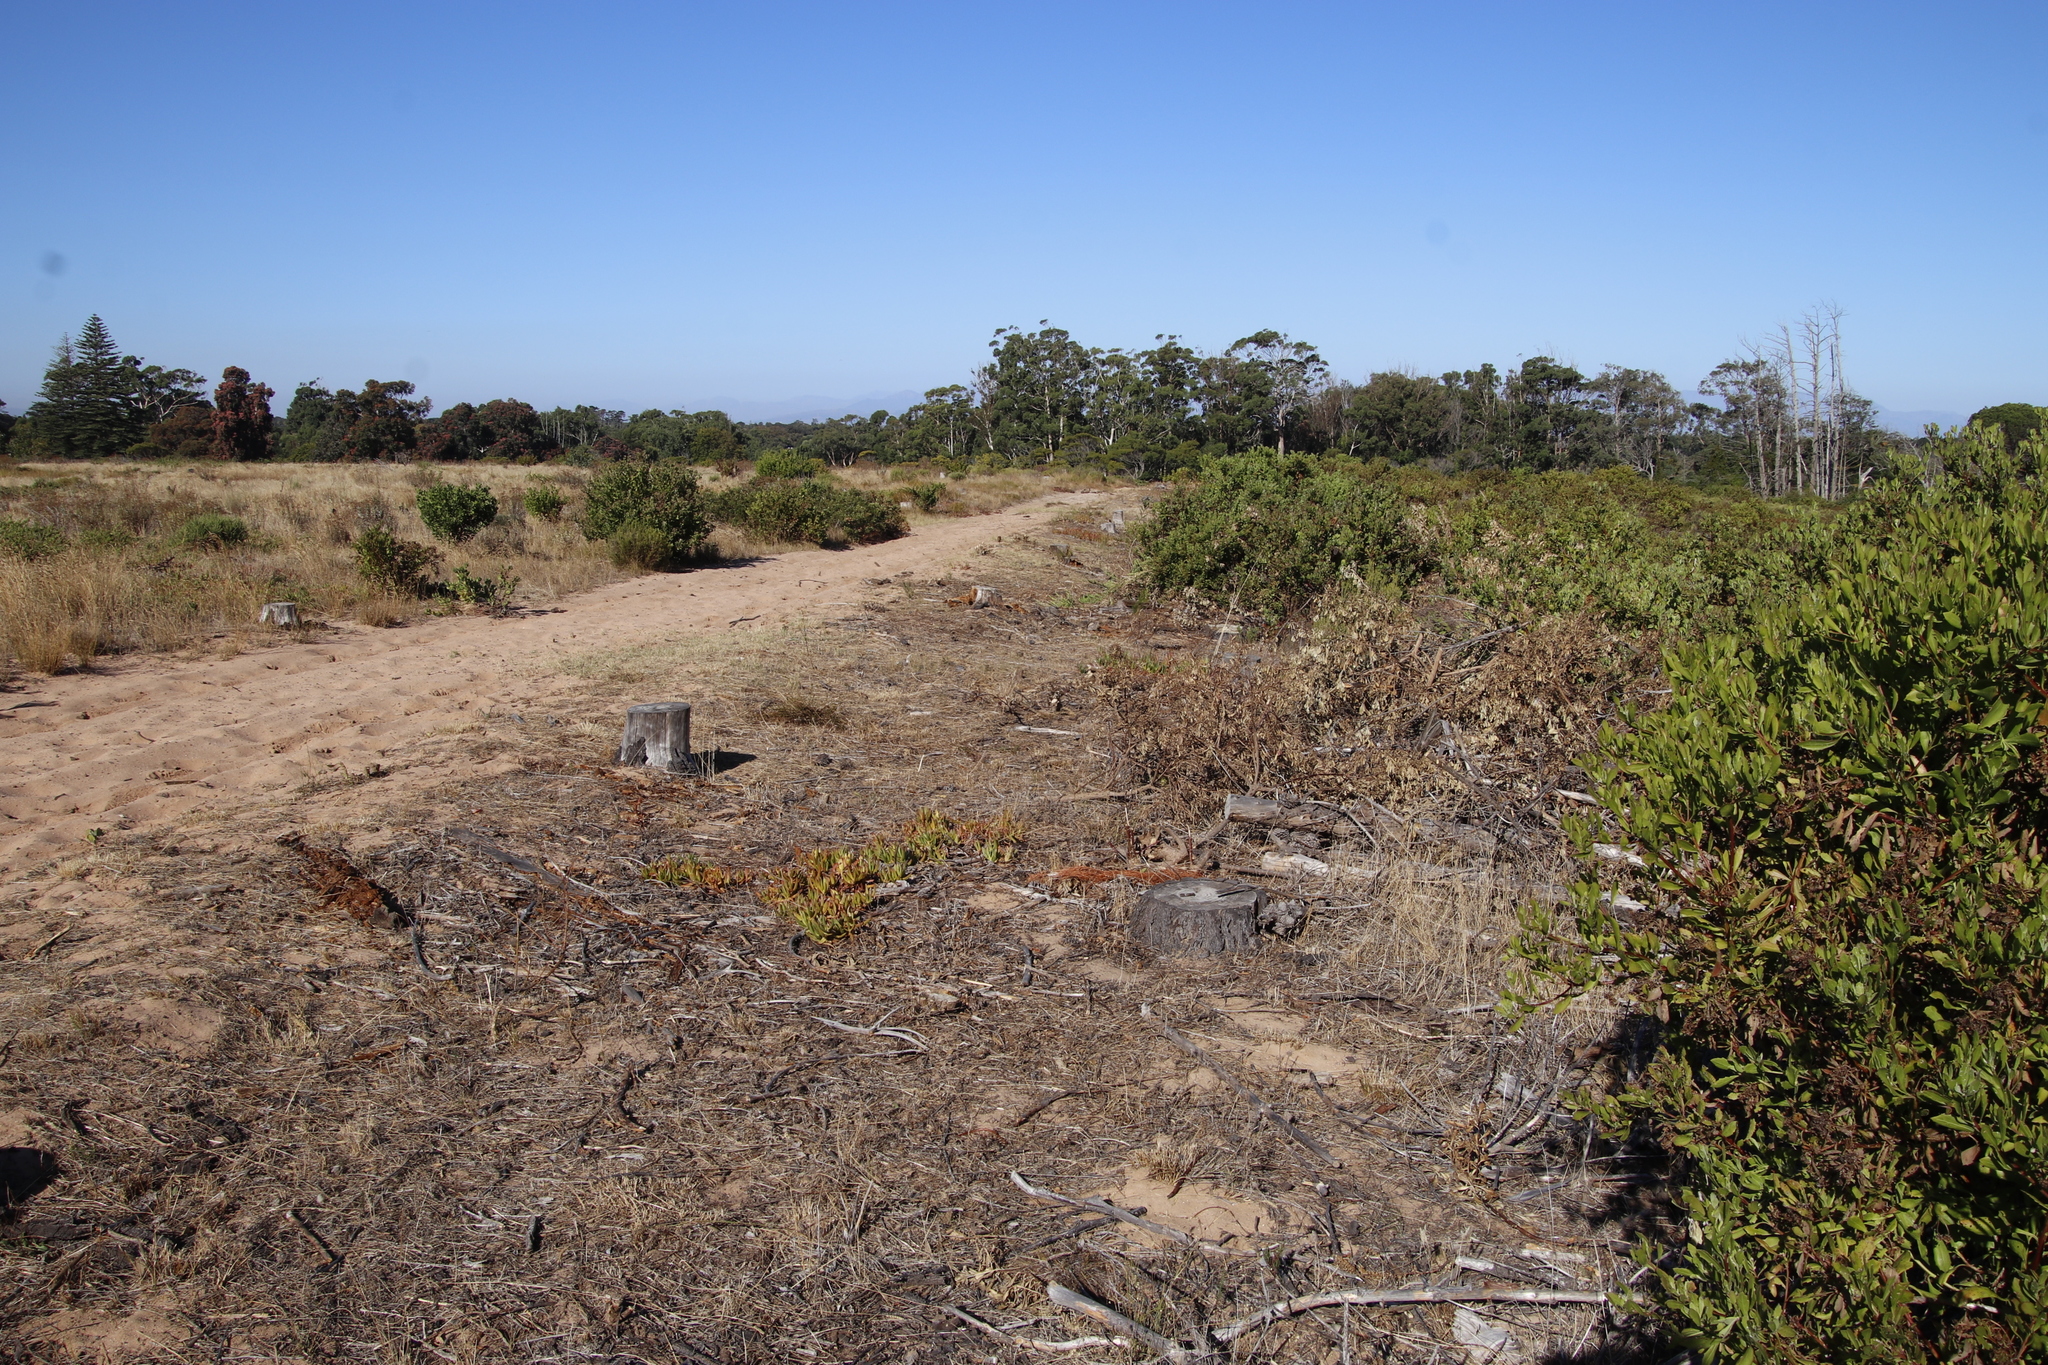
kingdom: Plantae
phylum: Tracheophyta
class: Magnoliopsida
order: Caryophyllales
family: Aizoaceae
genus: Carpobrotus
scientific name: Carpobrotus edulis
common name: Hottentot-fig
